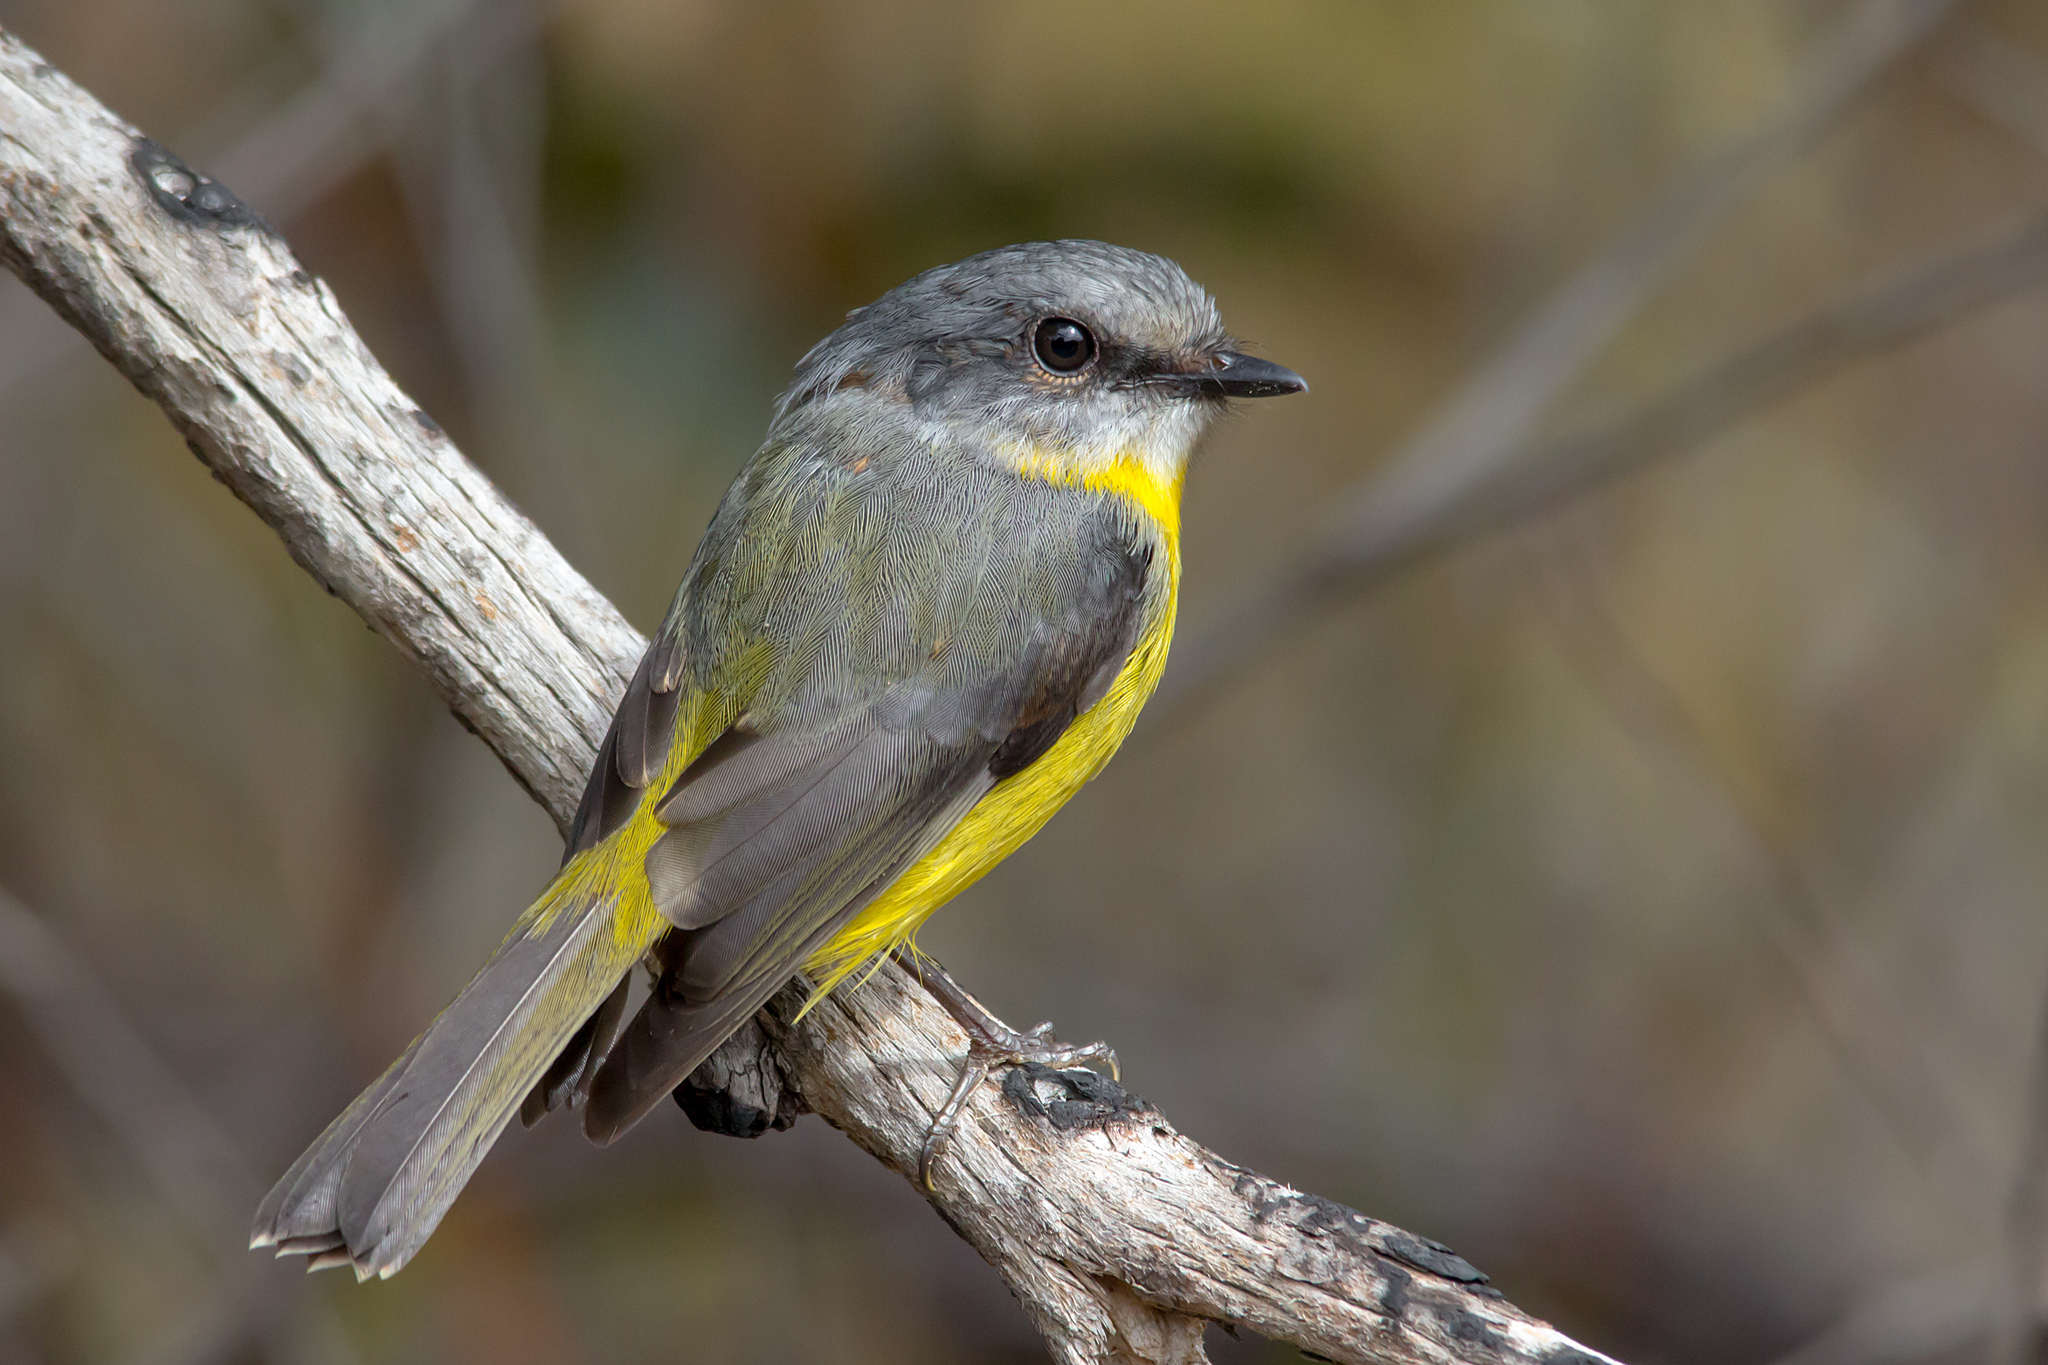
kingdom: Animalia
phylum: Chordata
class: Aves
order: Passeriformes
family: Petroicidae
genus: Eopsaltria
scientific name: Eopsaltria australis
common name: Eastern yellow robin
